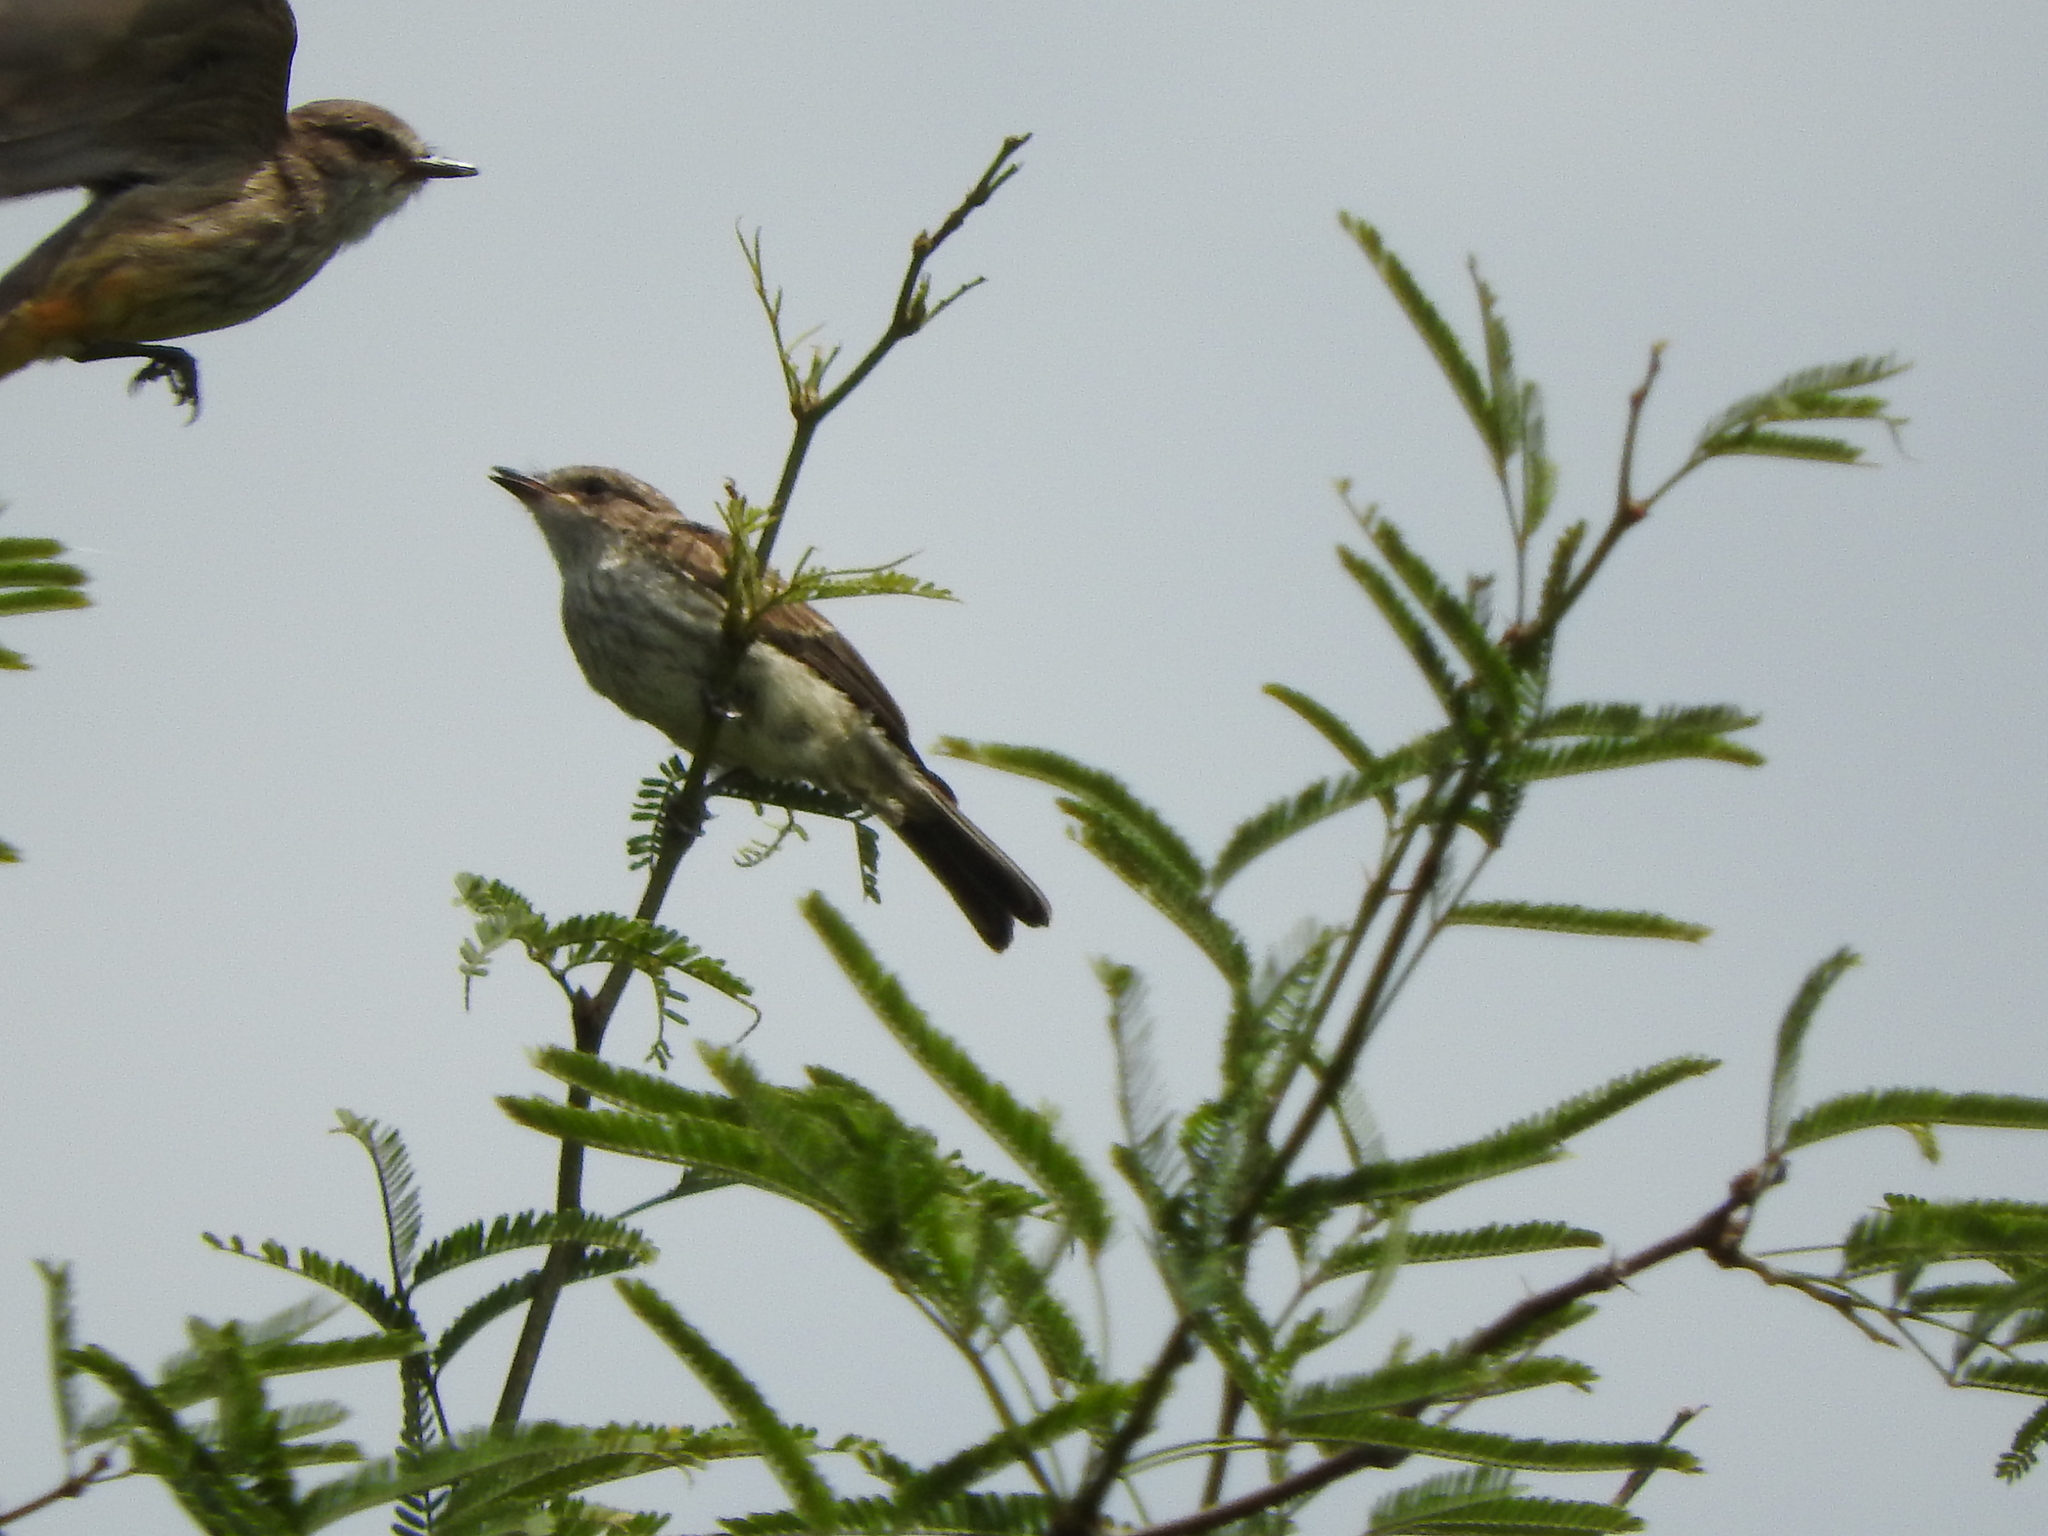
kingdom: Animalia
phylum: Chordata
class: Aves
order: Passeriformes
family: Tyrannidae
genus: Pyrocephalus
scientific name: Pyrocephalus rubinus
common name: Vermilion flycatcher
